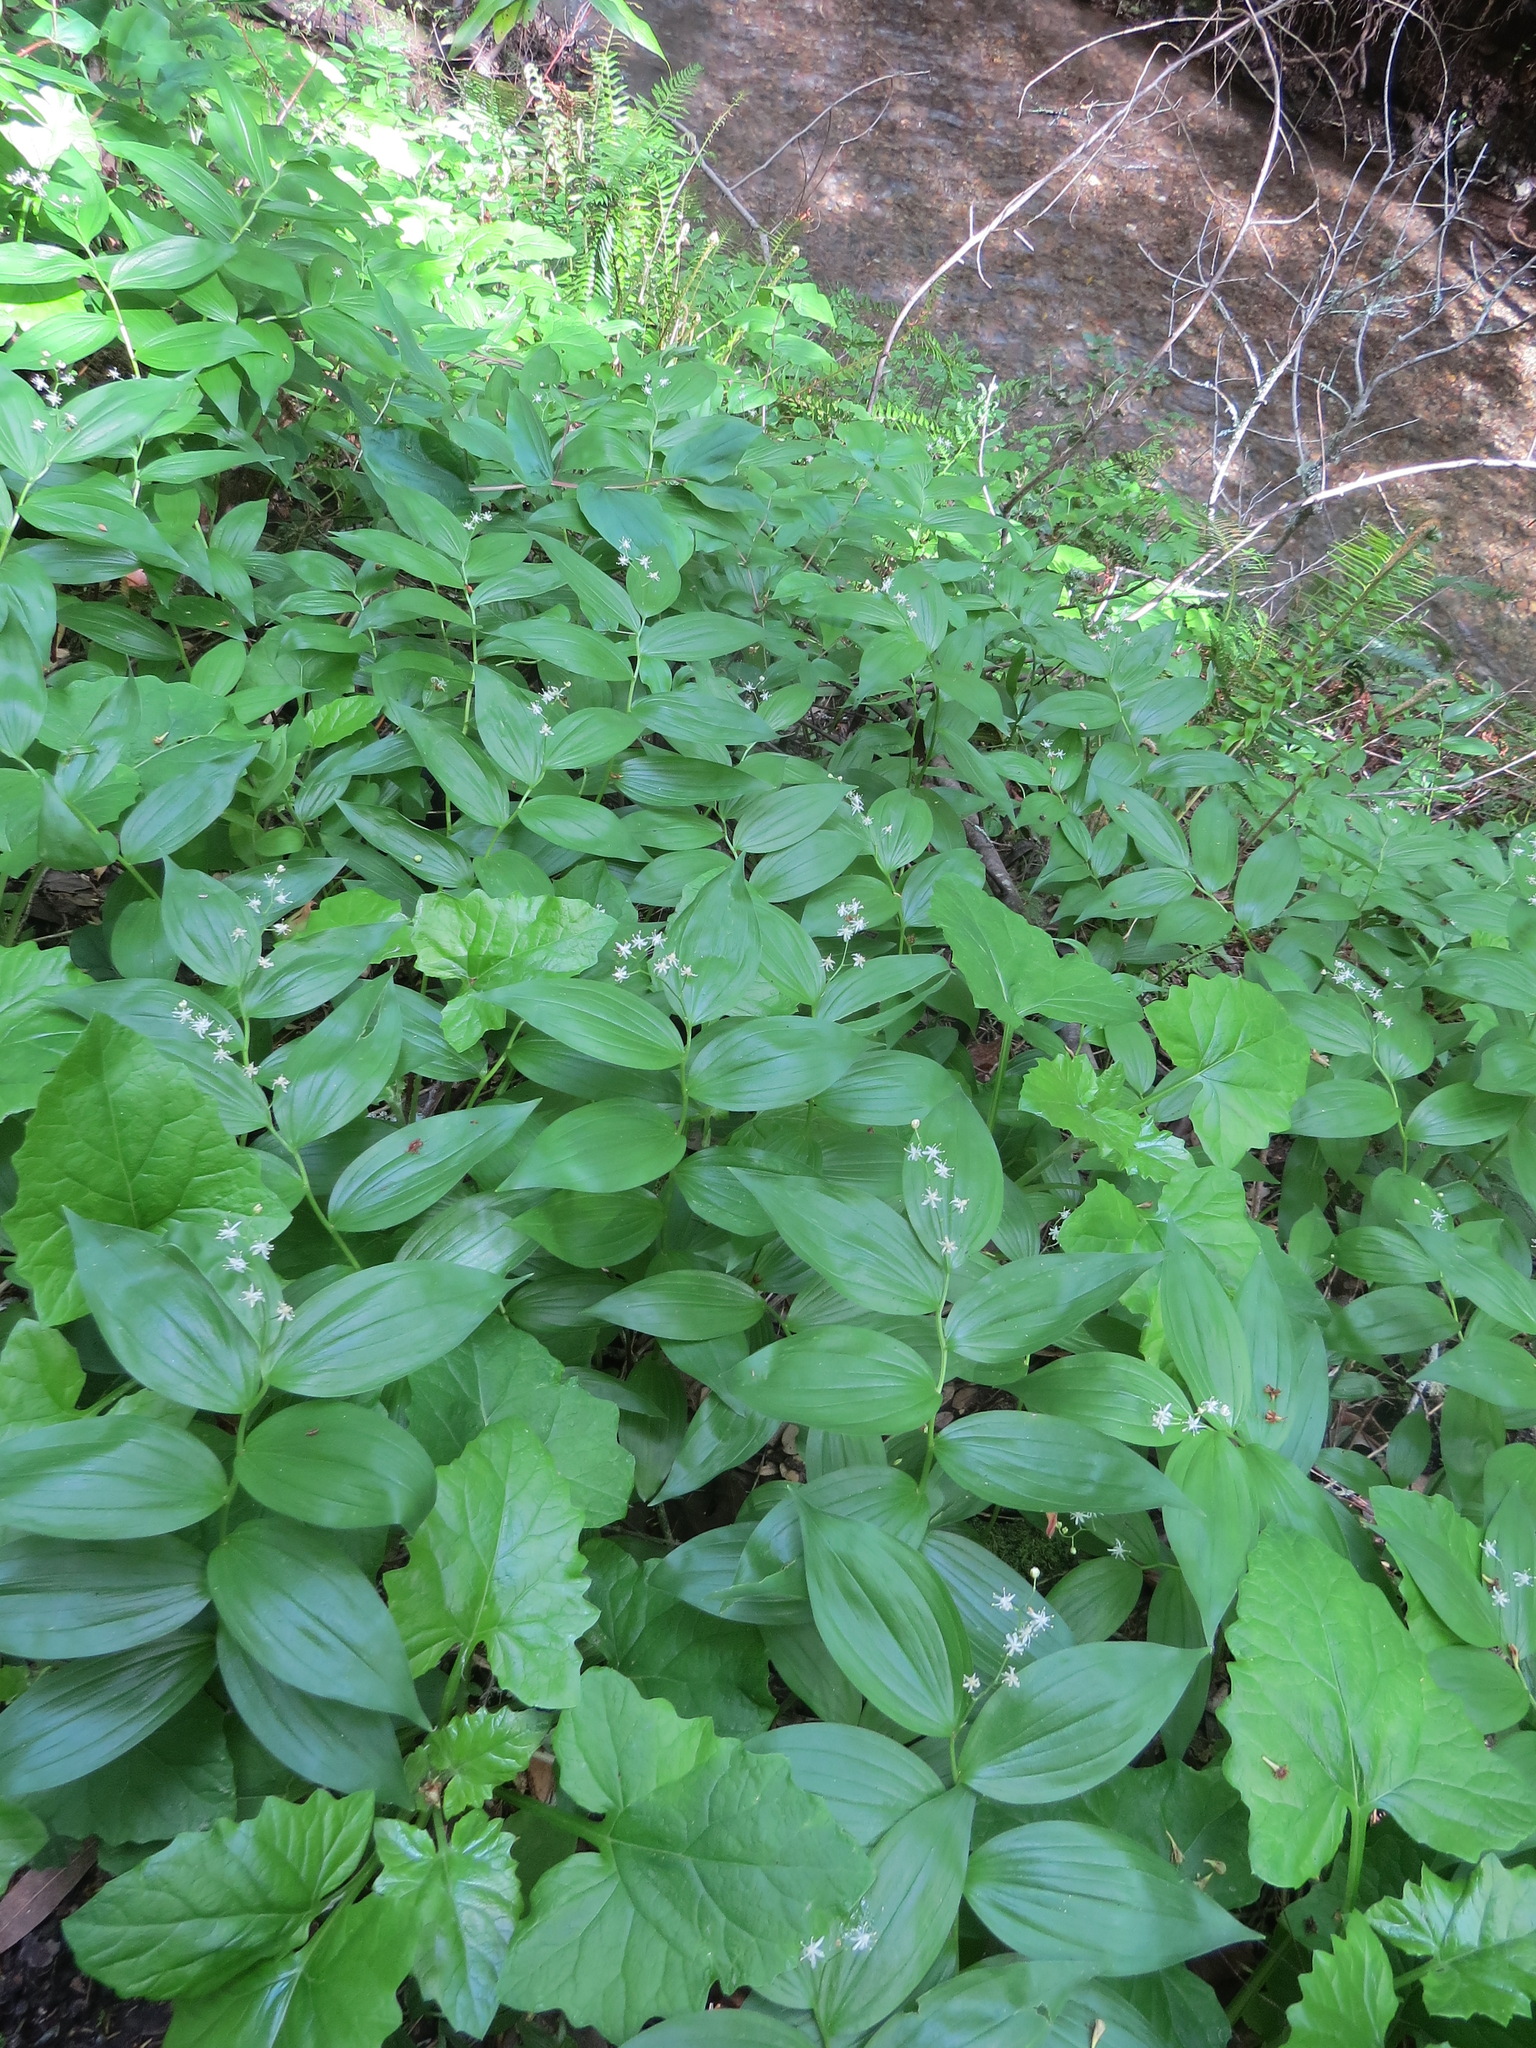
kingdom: Plantae
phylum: Tracheophyta
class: Liliopsida
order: Asparagales
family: Asparagaceae
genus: Maianthemum
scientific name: Maianthemum stellatum
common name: Little false solomon's seal
